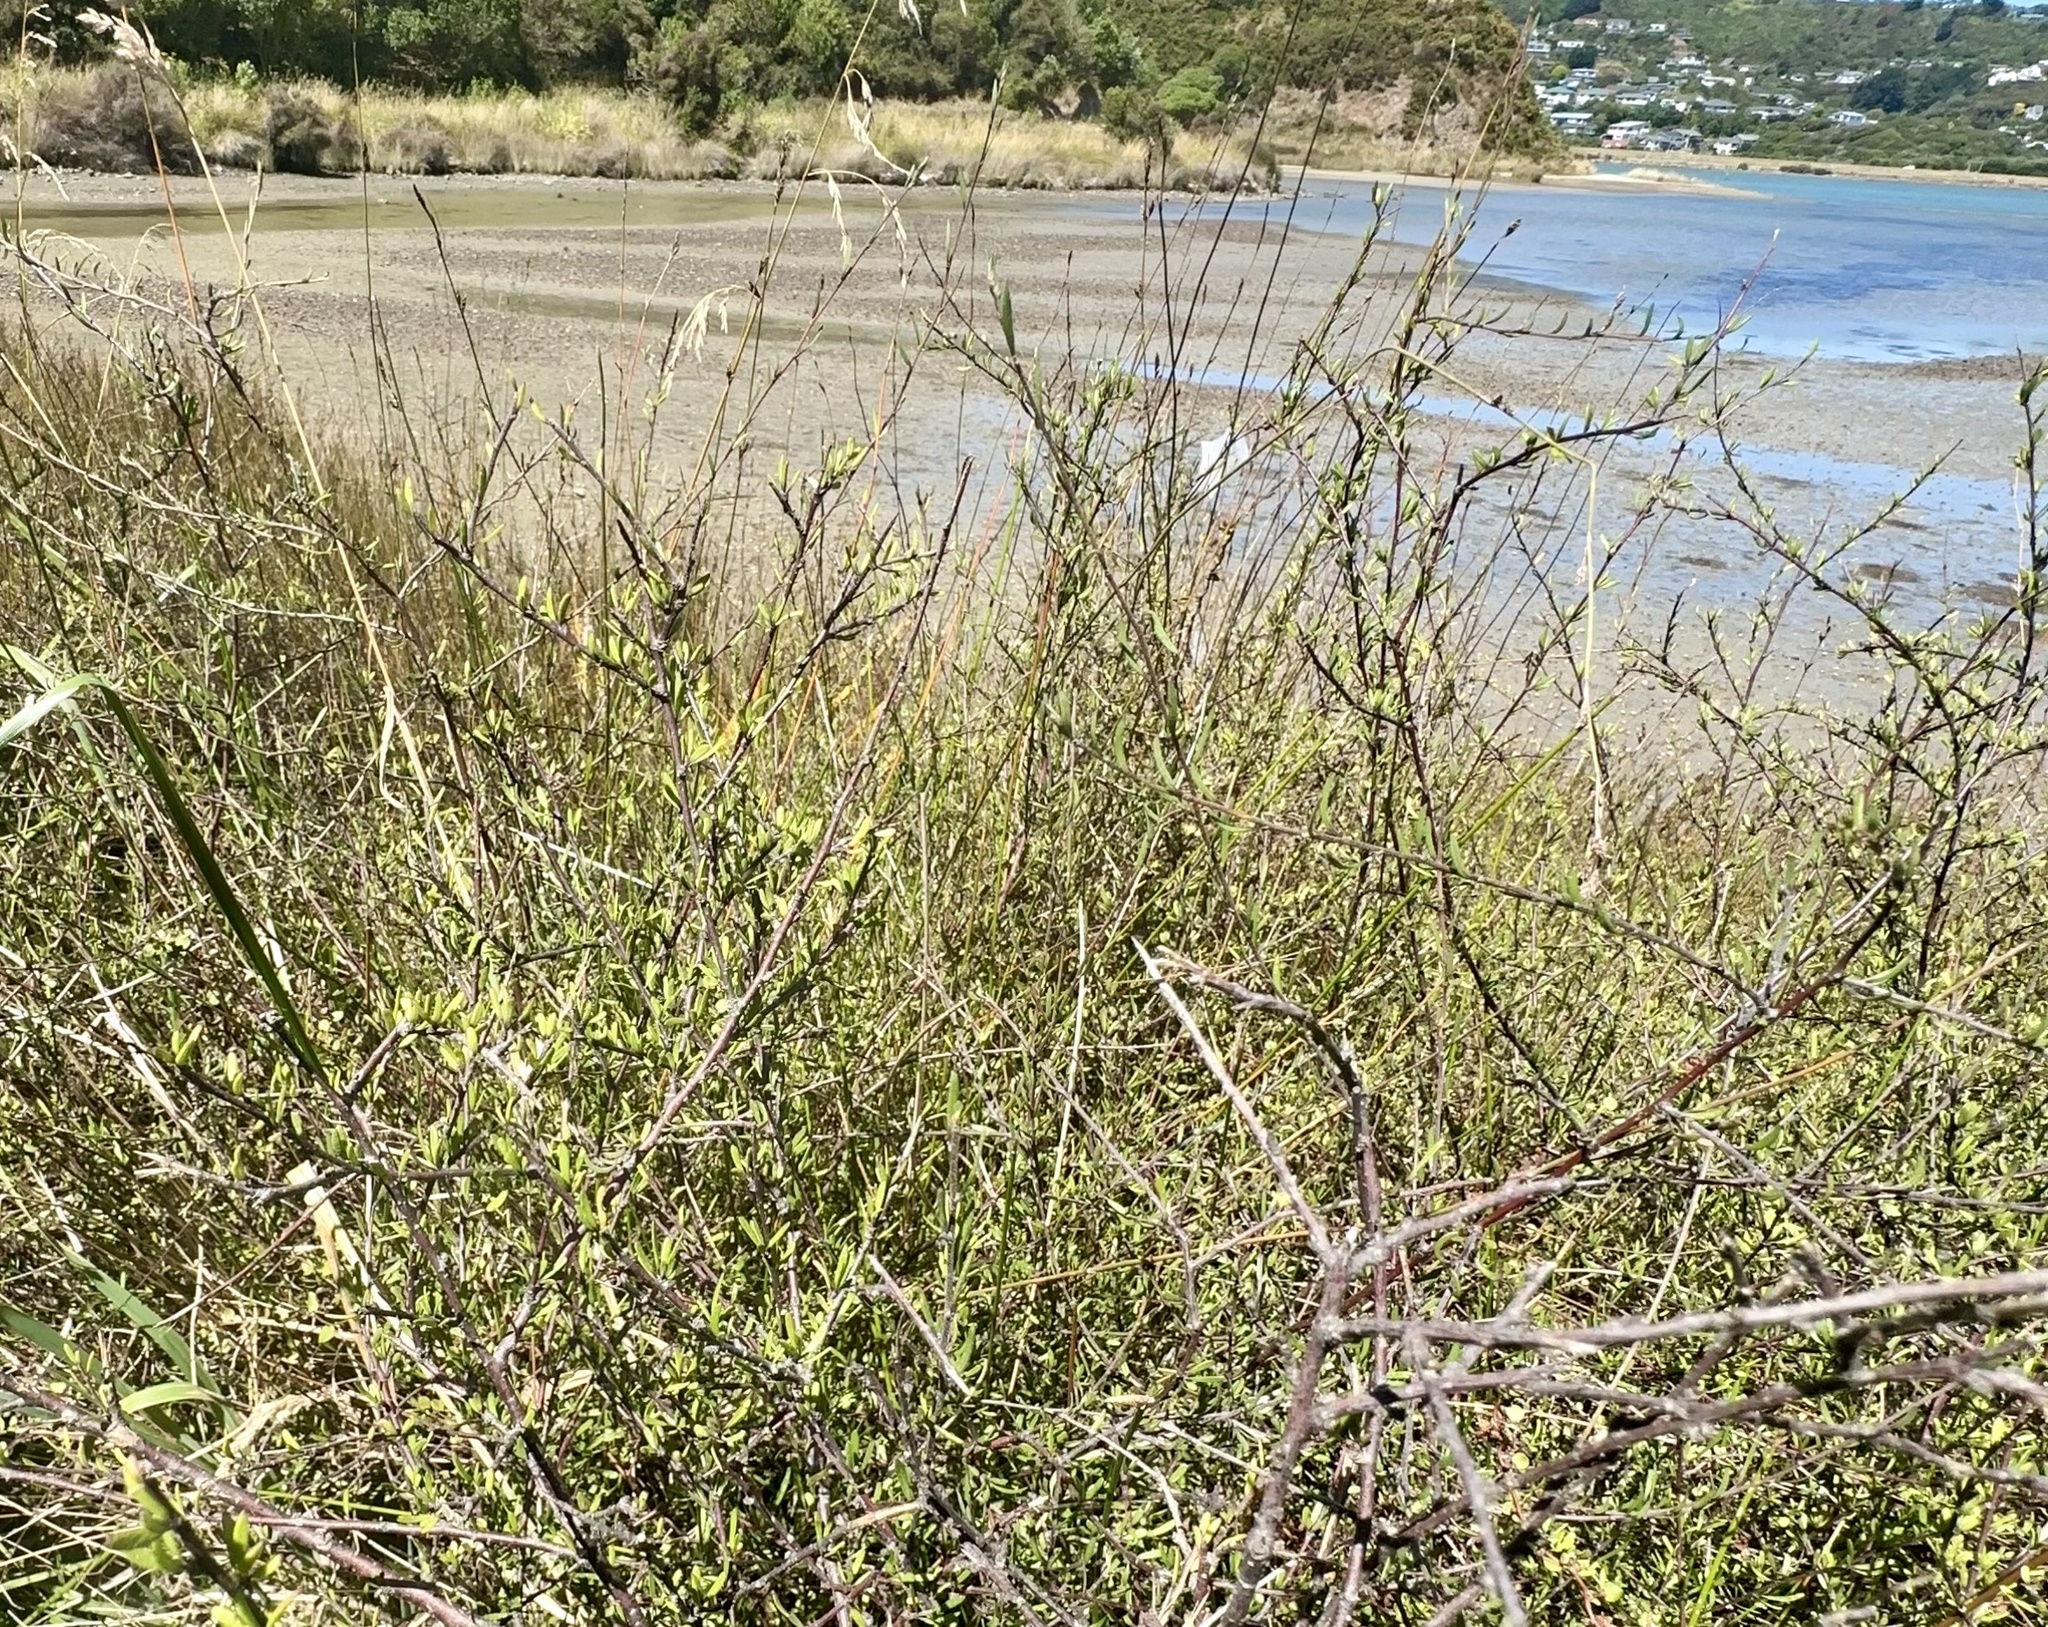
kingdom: Plantae
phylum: Tracheophyta
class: Magnoliopsida
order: Malvales
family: Malvaceae
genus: Plagianthus
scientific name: Plagianthus divaricatus
